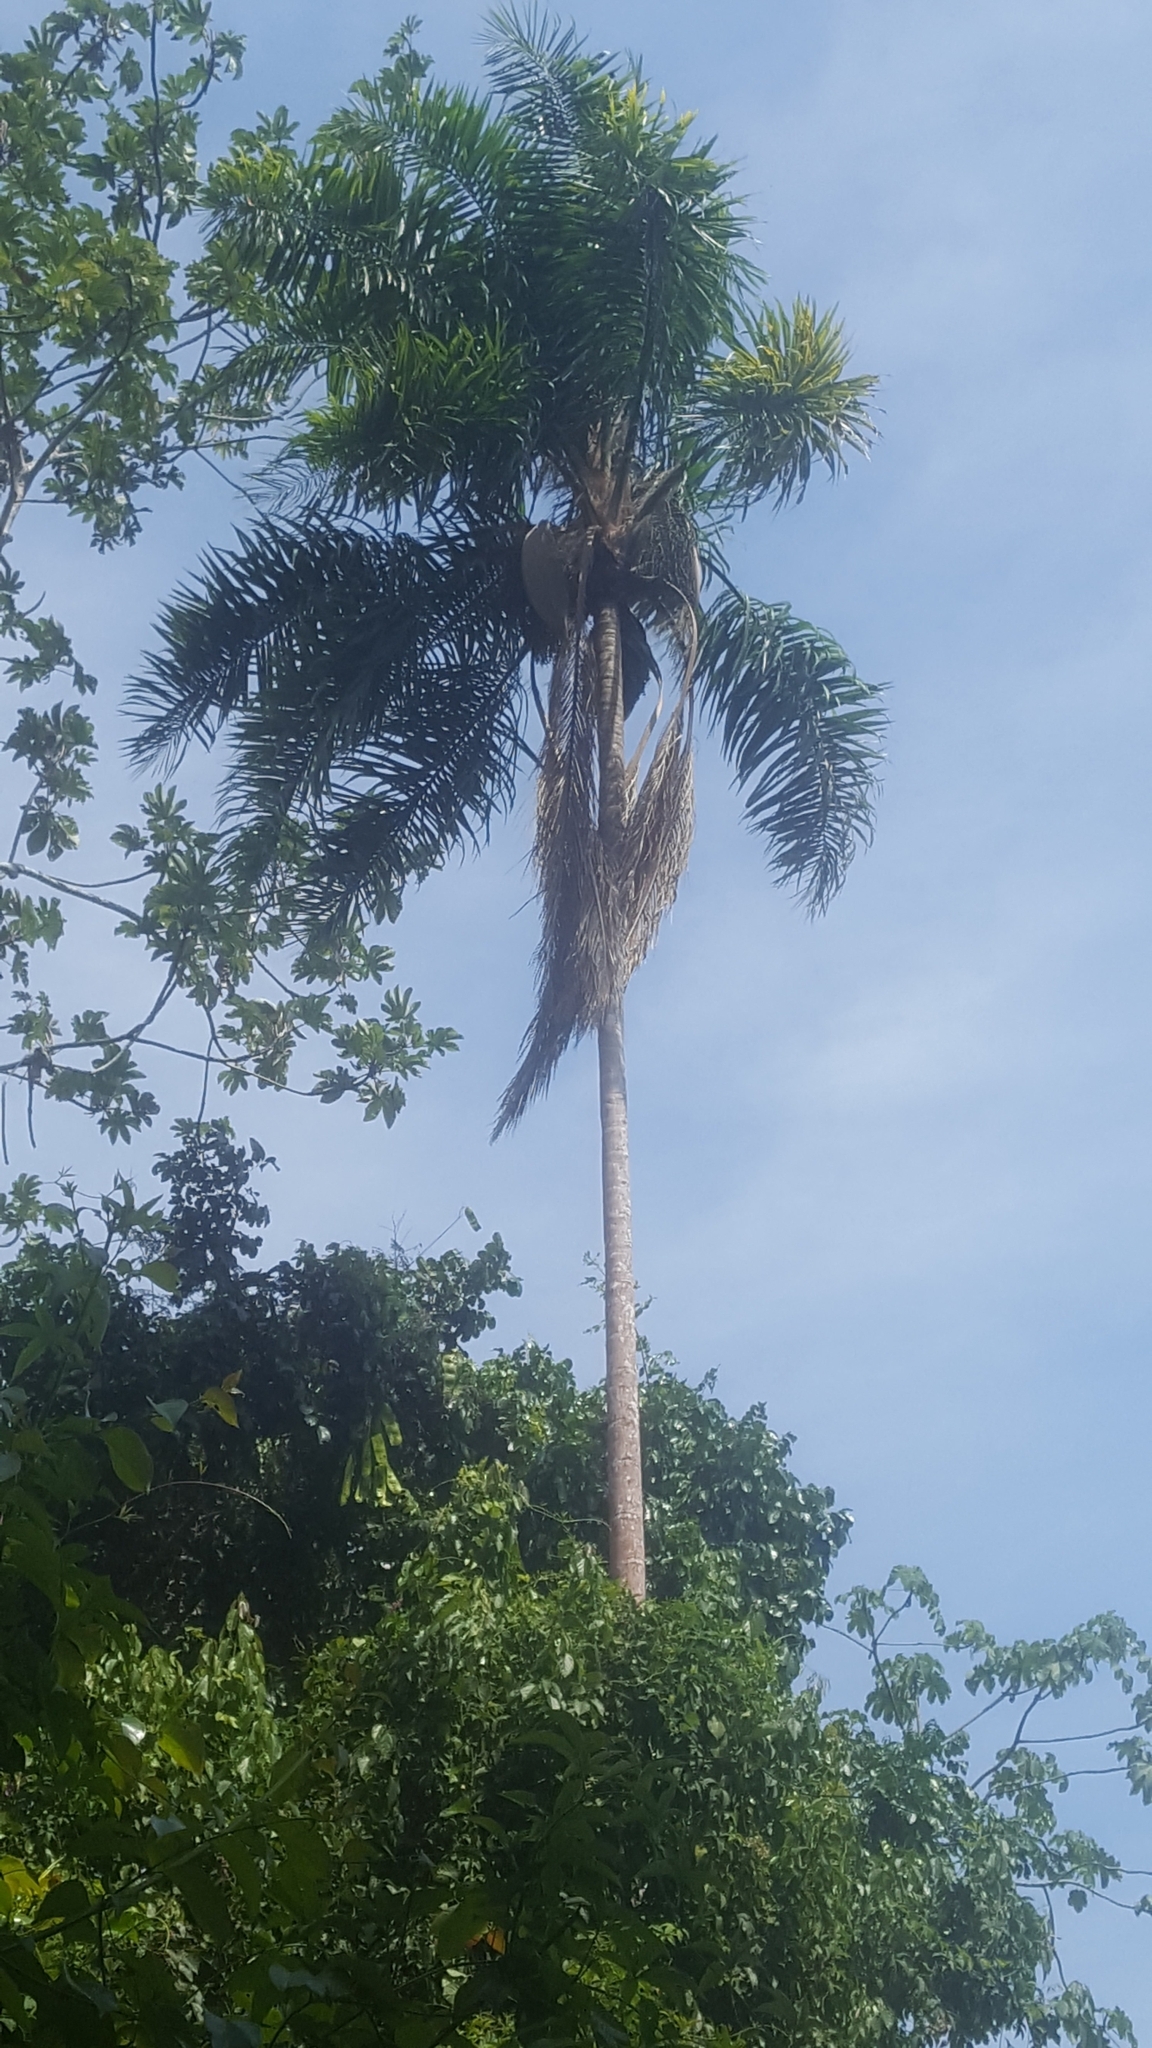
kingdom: Plantae
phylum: Tracheophyta
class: Liliopsida
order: Arecales
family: Arecaceae
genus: Syagrus
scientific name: Syagrus sancona
